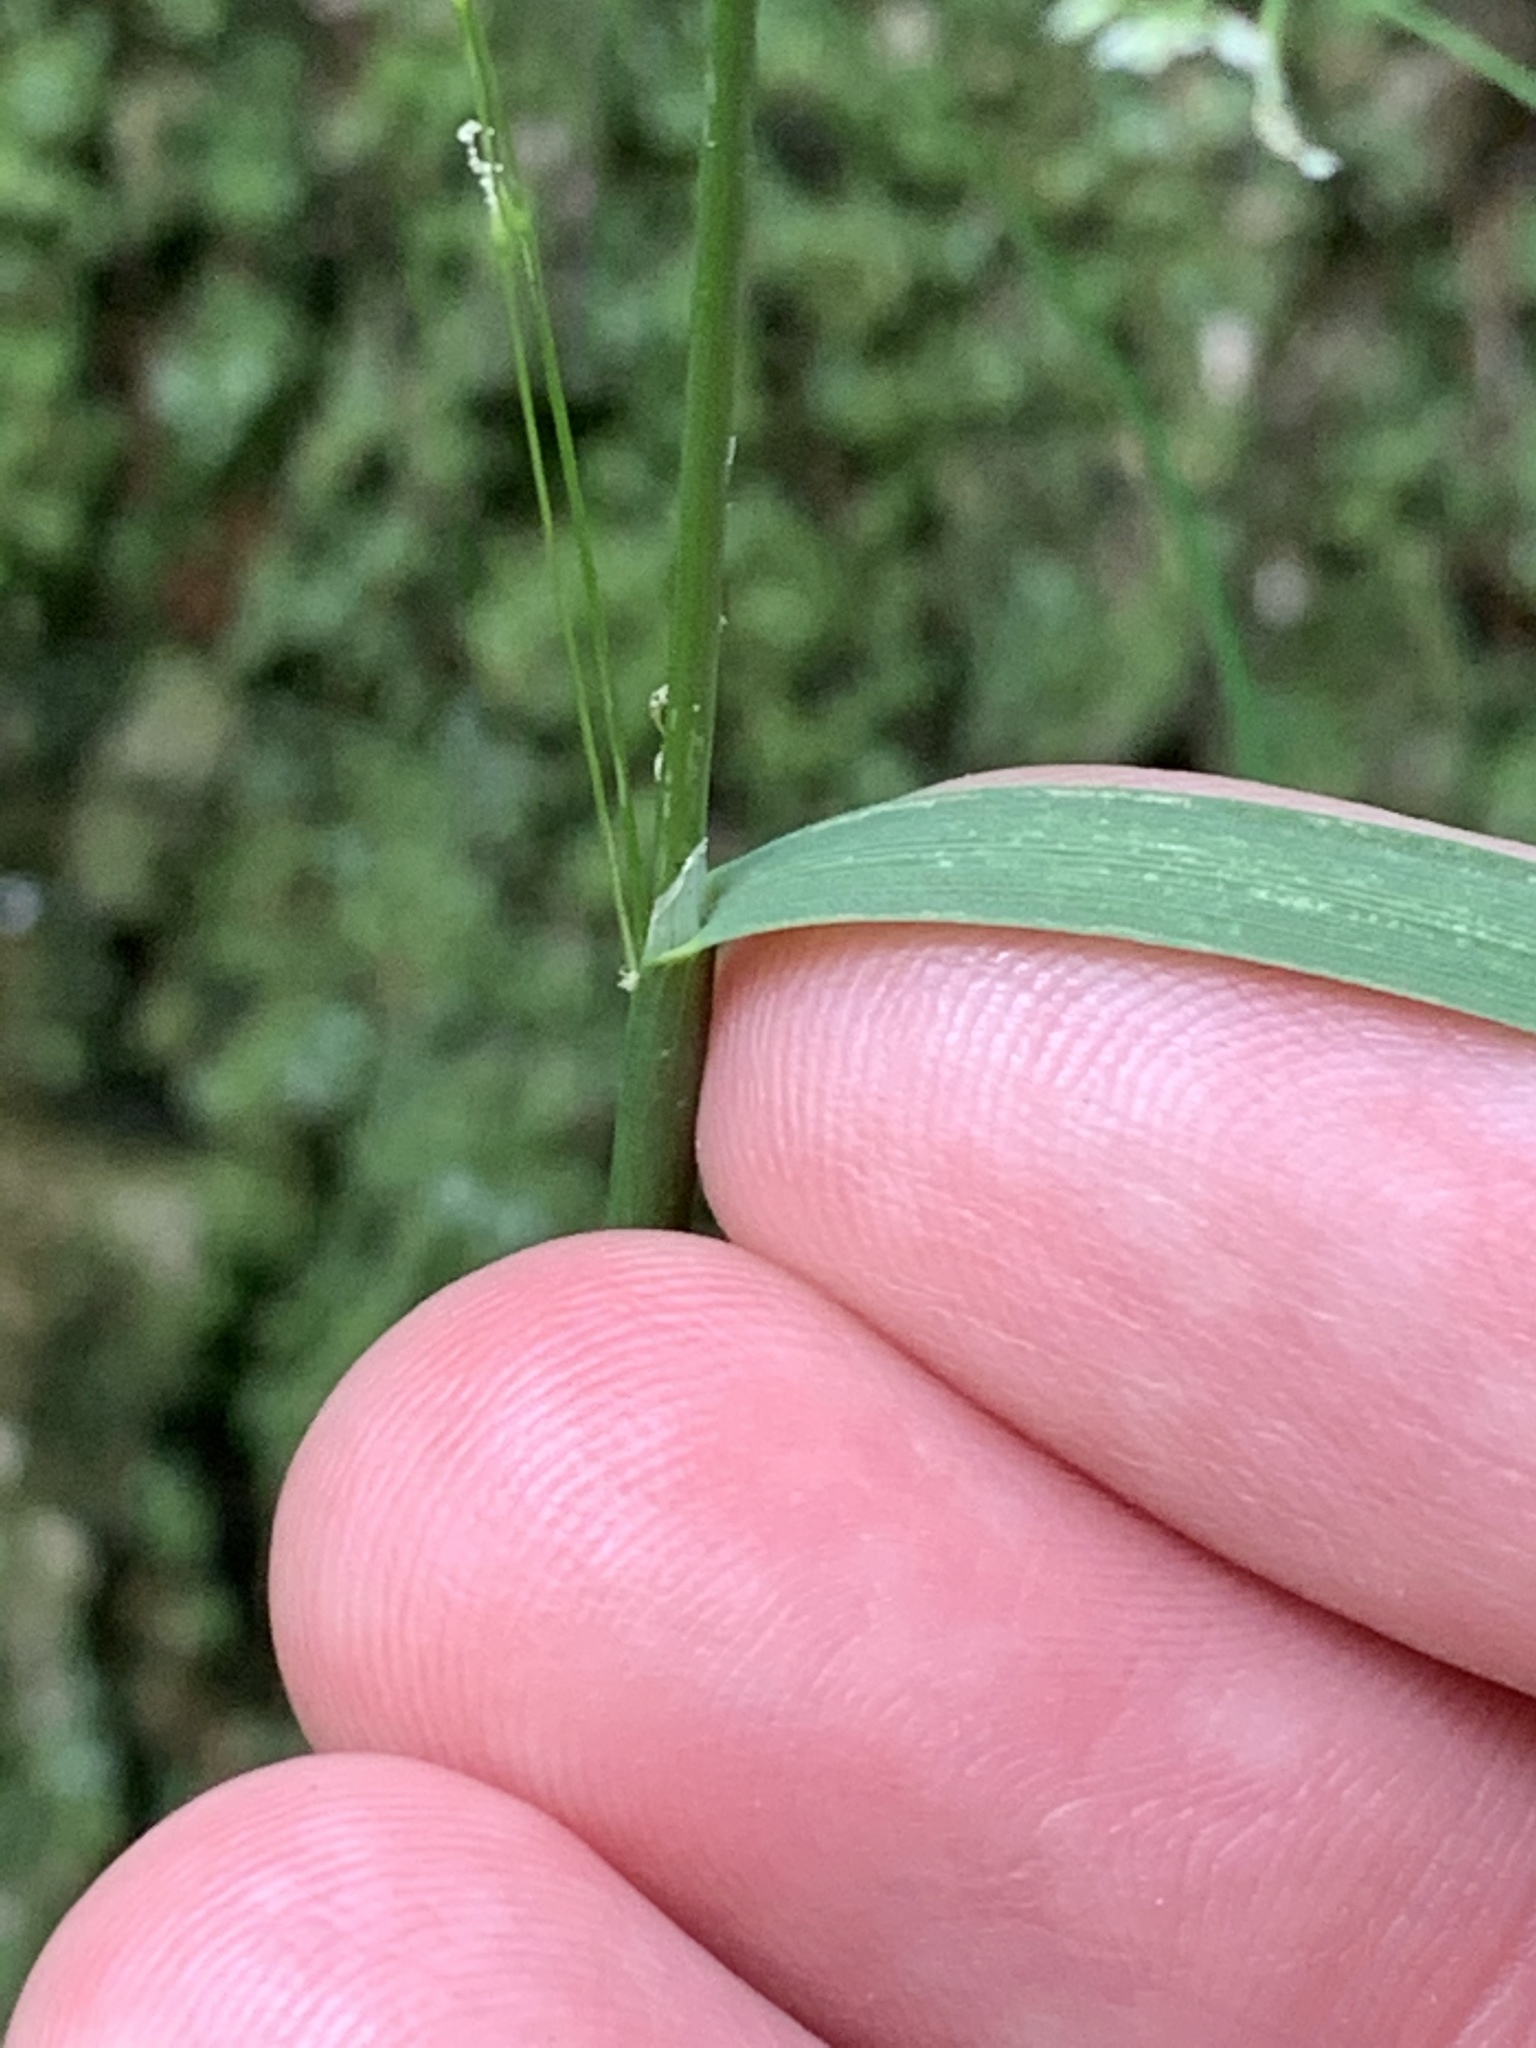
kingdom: Plantae
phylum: Tracheophyta
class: Liliopsida
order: Poales
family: Poaceae
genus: Poa
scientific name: Poa pratensis
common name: Kentucky bluegrass
